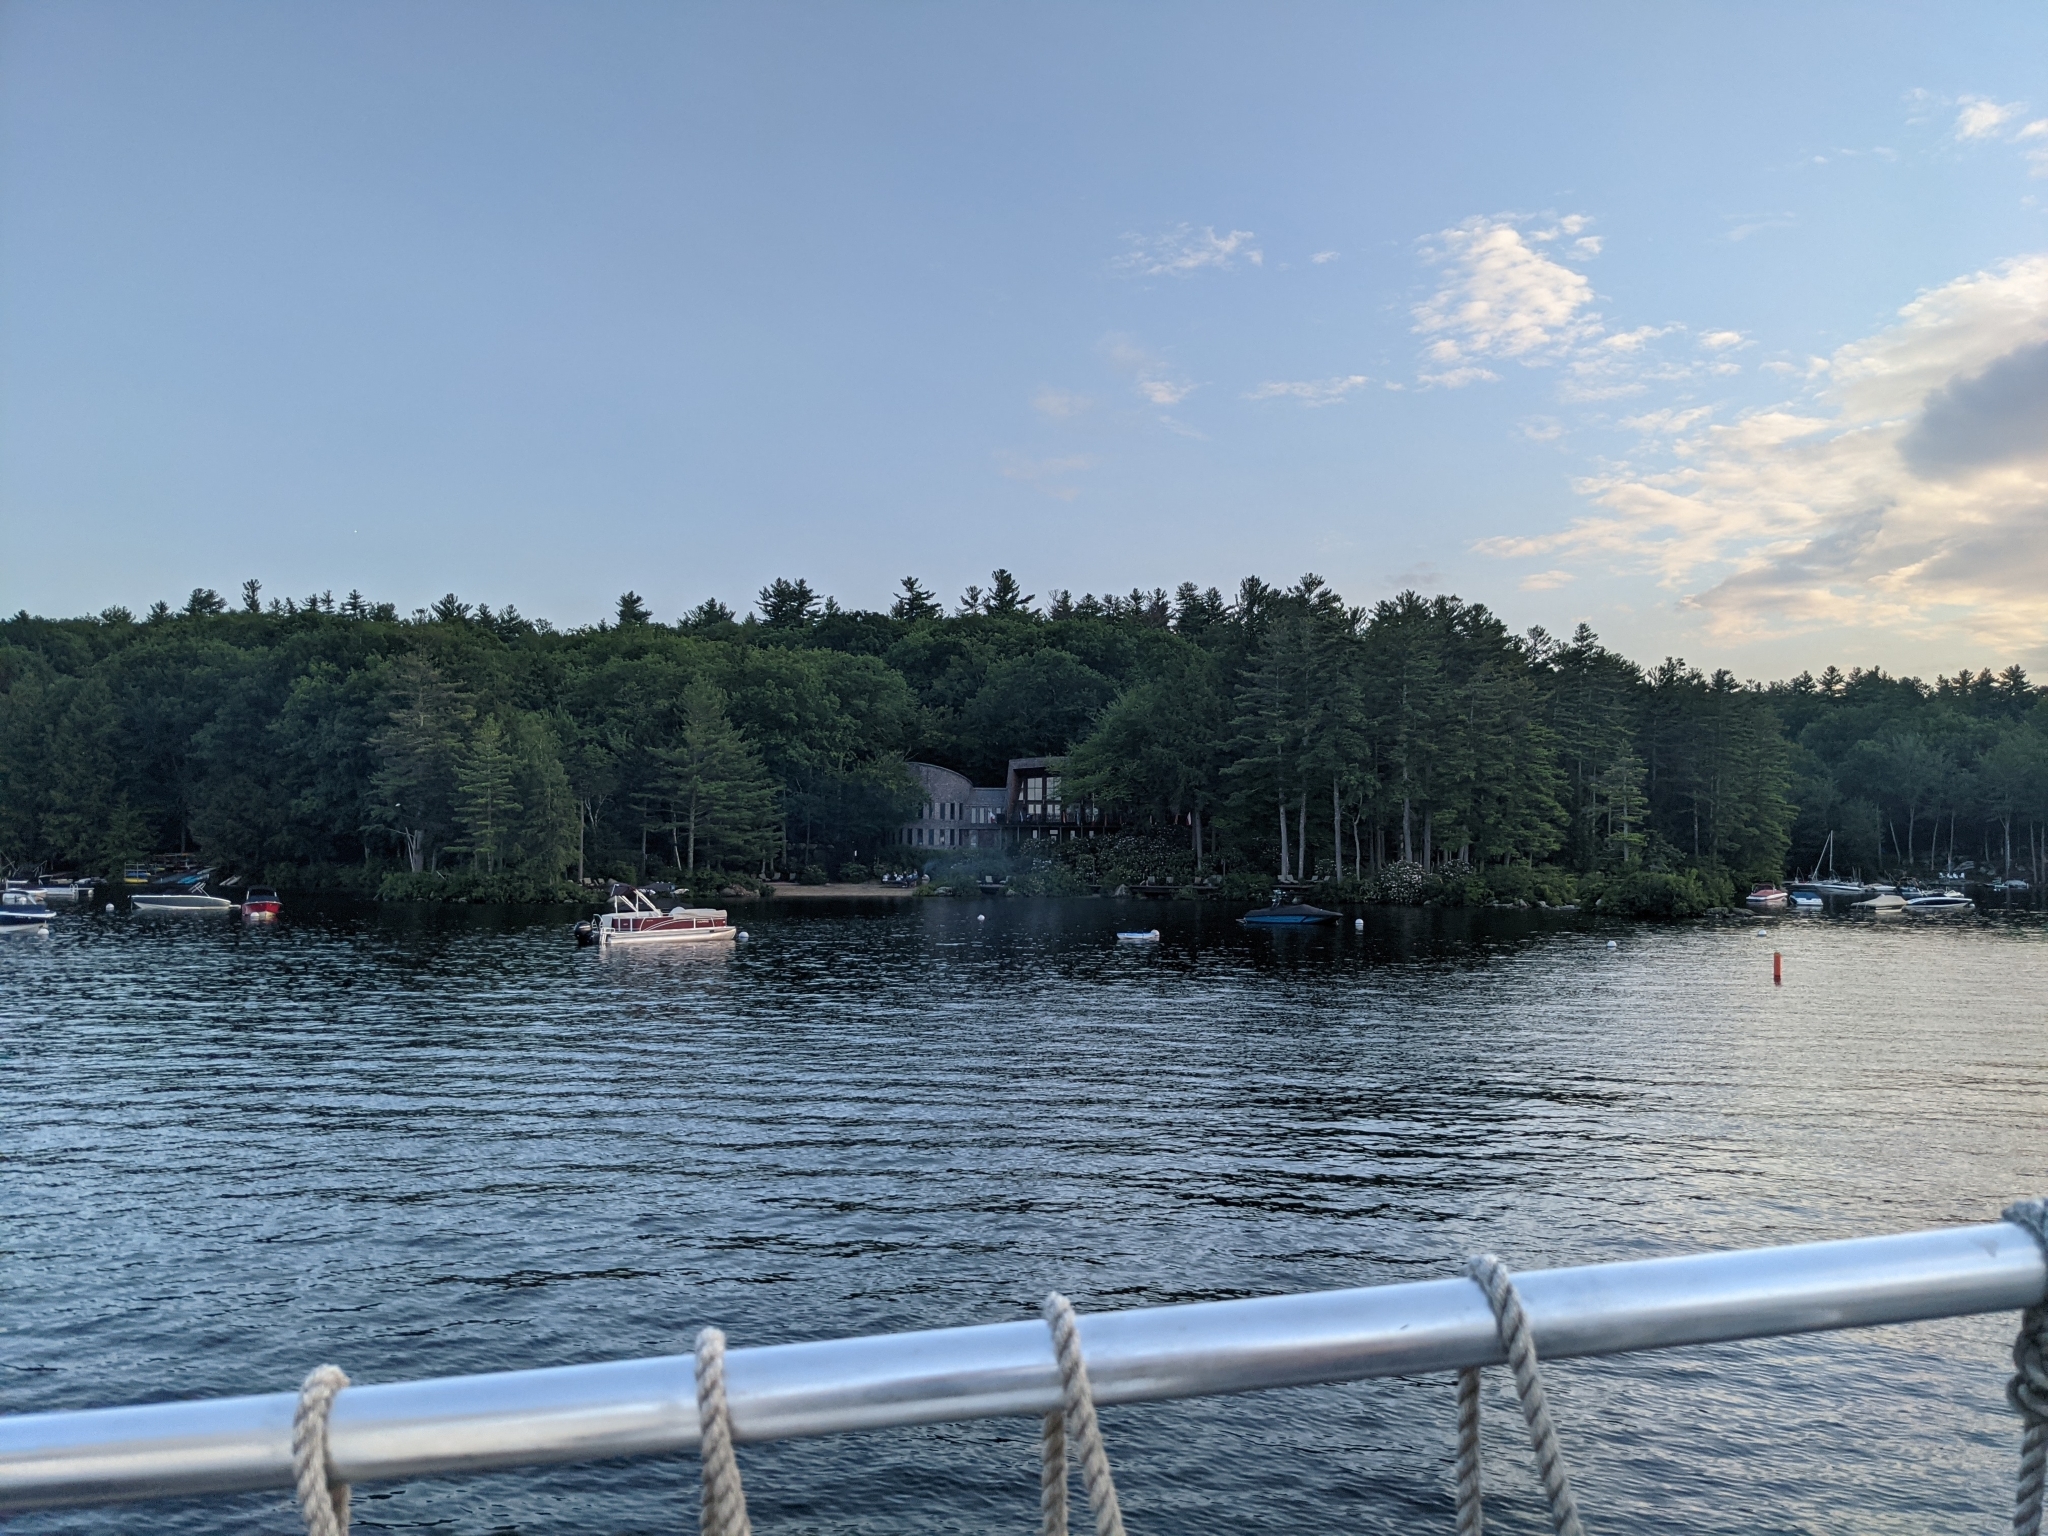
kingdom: Plantae
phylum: Tracheophyta
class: Pinopsida
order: Pinales
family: Pinaceae
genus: Pinus
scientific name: Pinus strobus
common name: Weymouth pine
